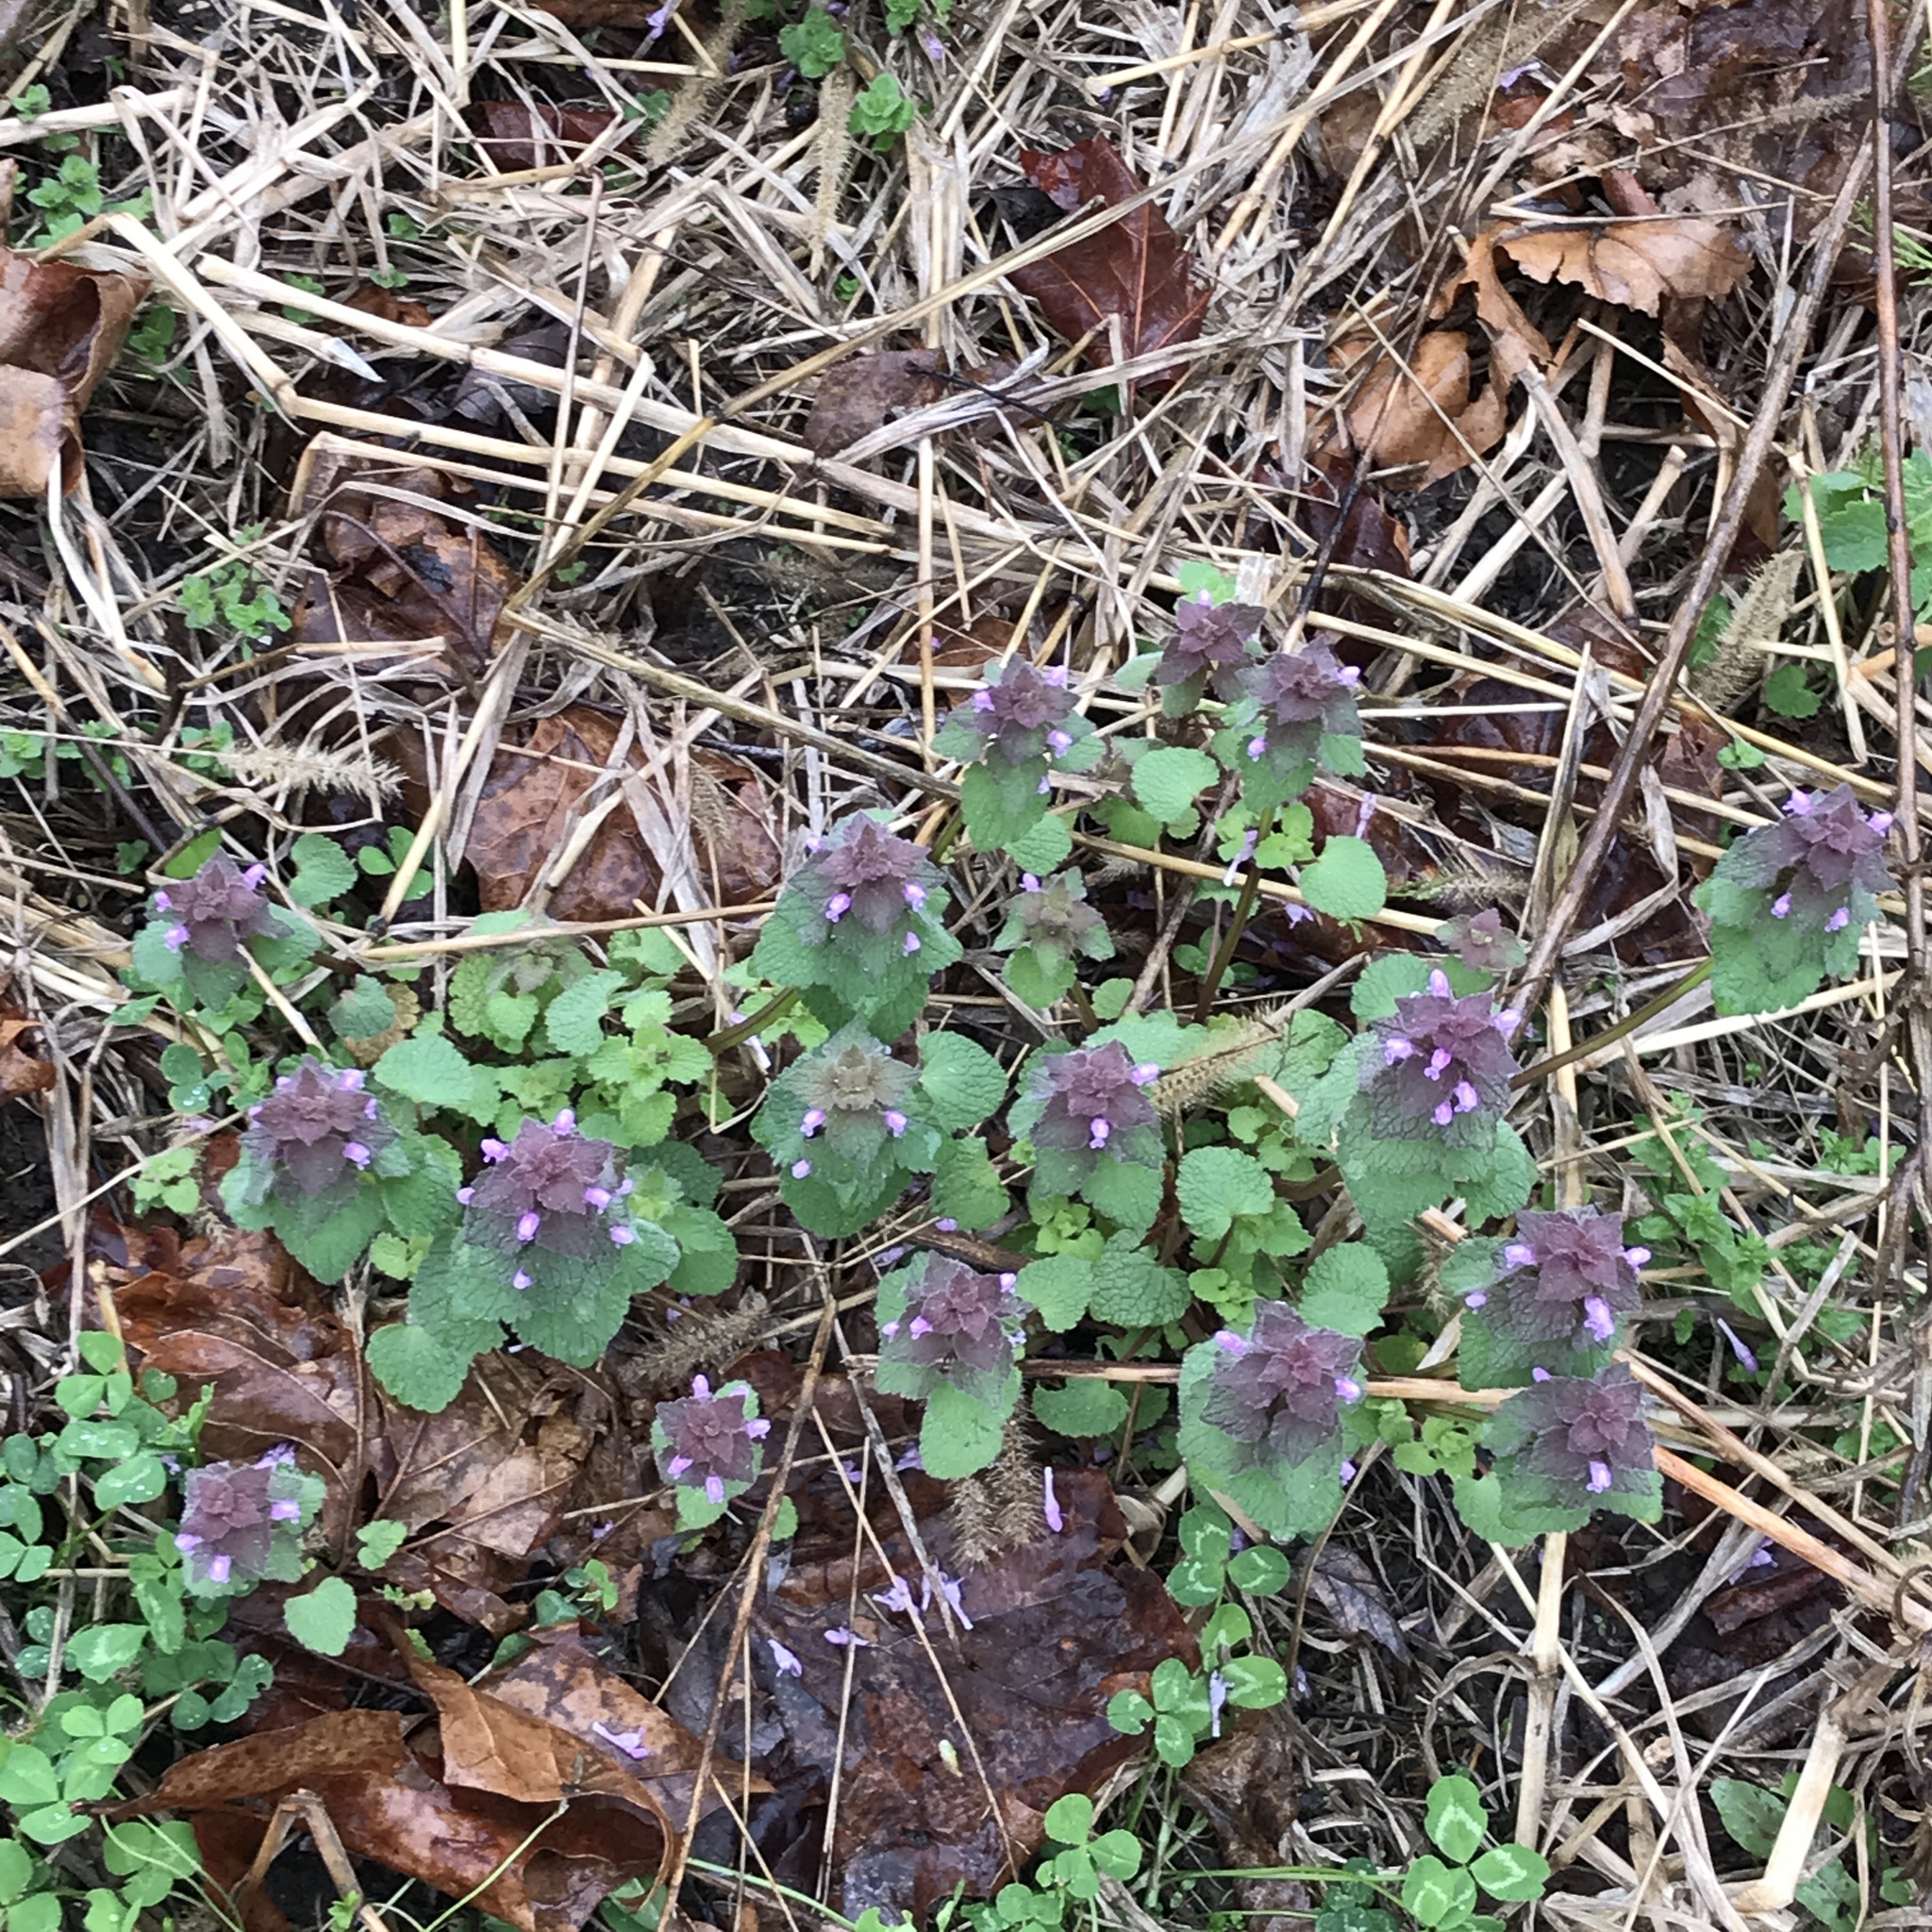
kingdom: Plantae
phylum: Tracheophyta
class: Magnoliopsida
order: Lamiales
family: Lamiaceae
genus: Lamium
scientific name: Lamium purpureum
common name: Red dead-nettle
